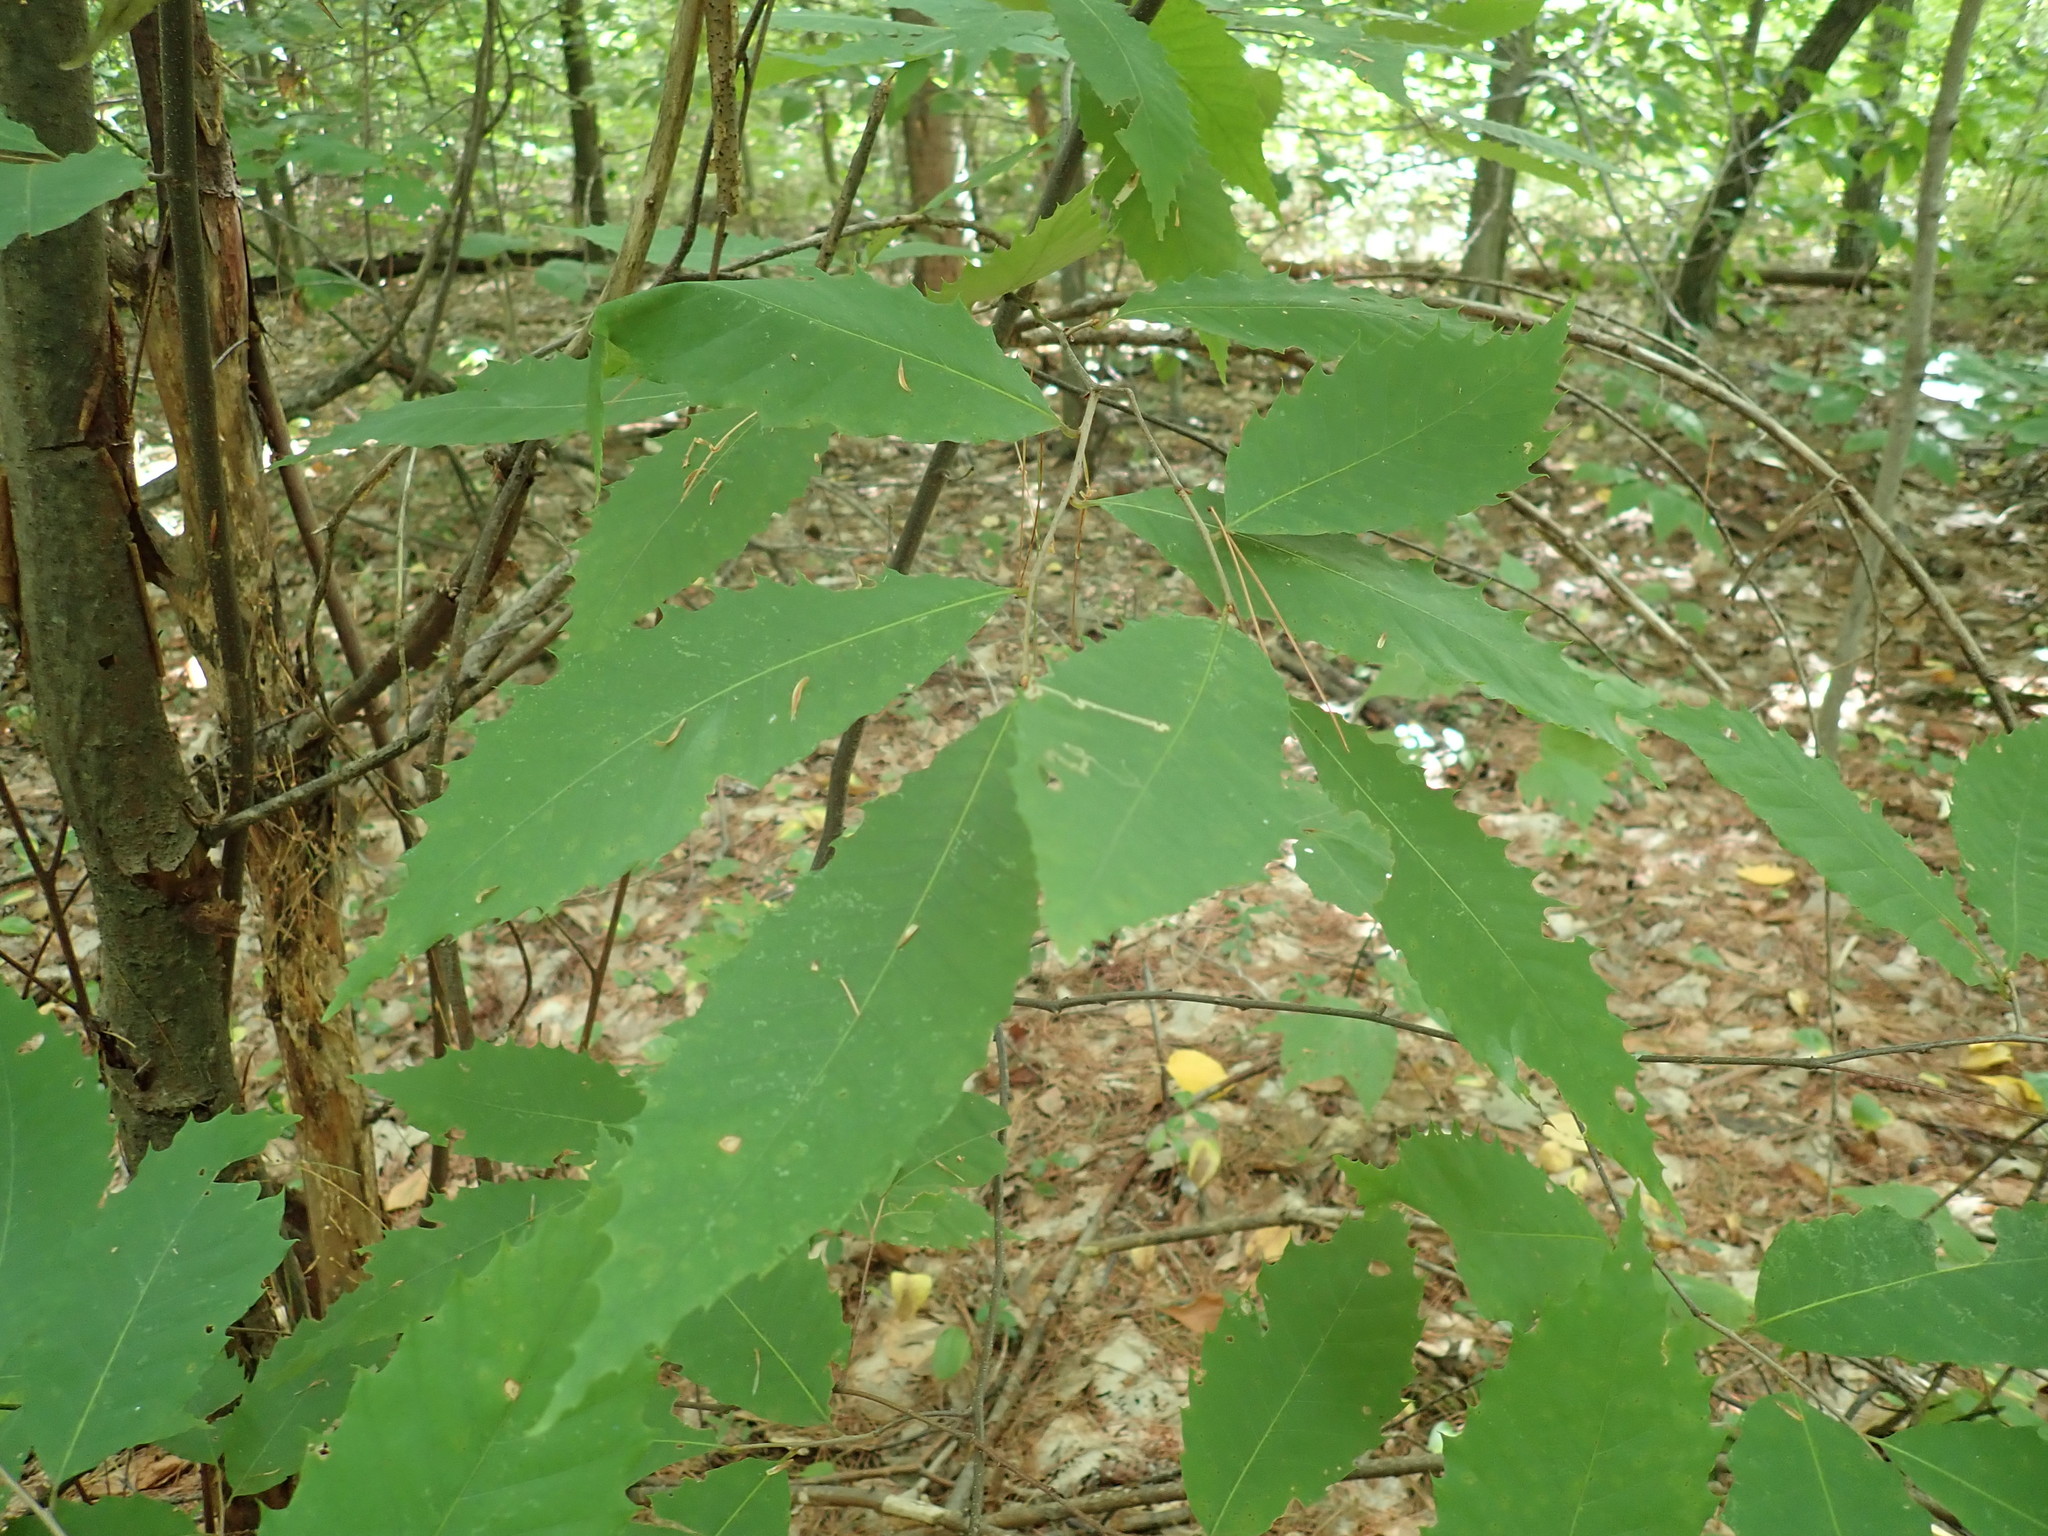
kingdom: Plantae
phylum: Tracheophyta
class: Magnoliopsida
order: Fagales
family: Fagaceae
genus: Castanea
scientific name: Castanea dentata
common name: American chestnut
